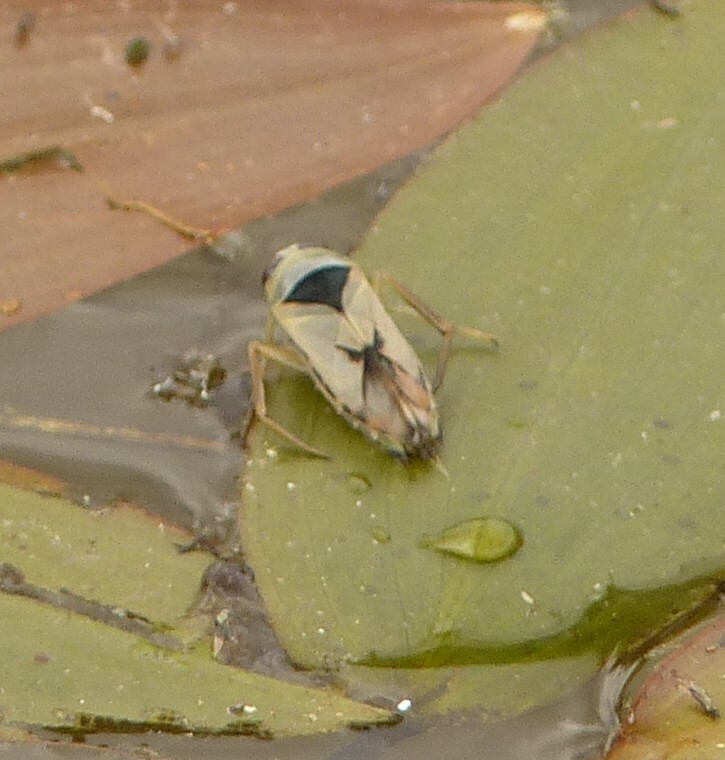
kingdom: Animalia
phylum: Arthropoda
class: Insecta
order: Hemiptera
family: Notonectidae
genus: Notonecta
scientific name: Notonecta viridis
